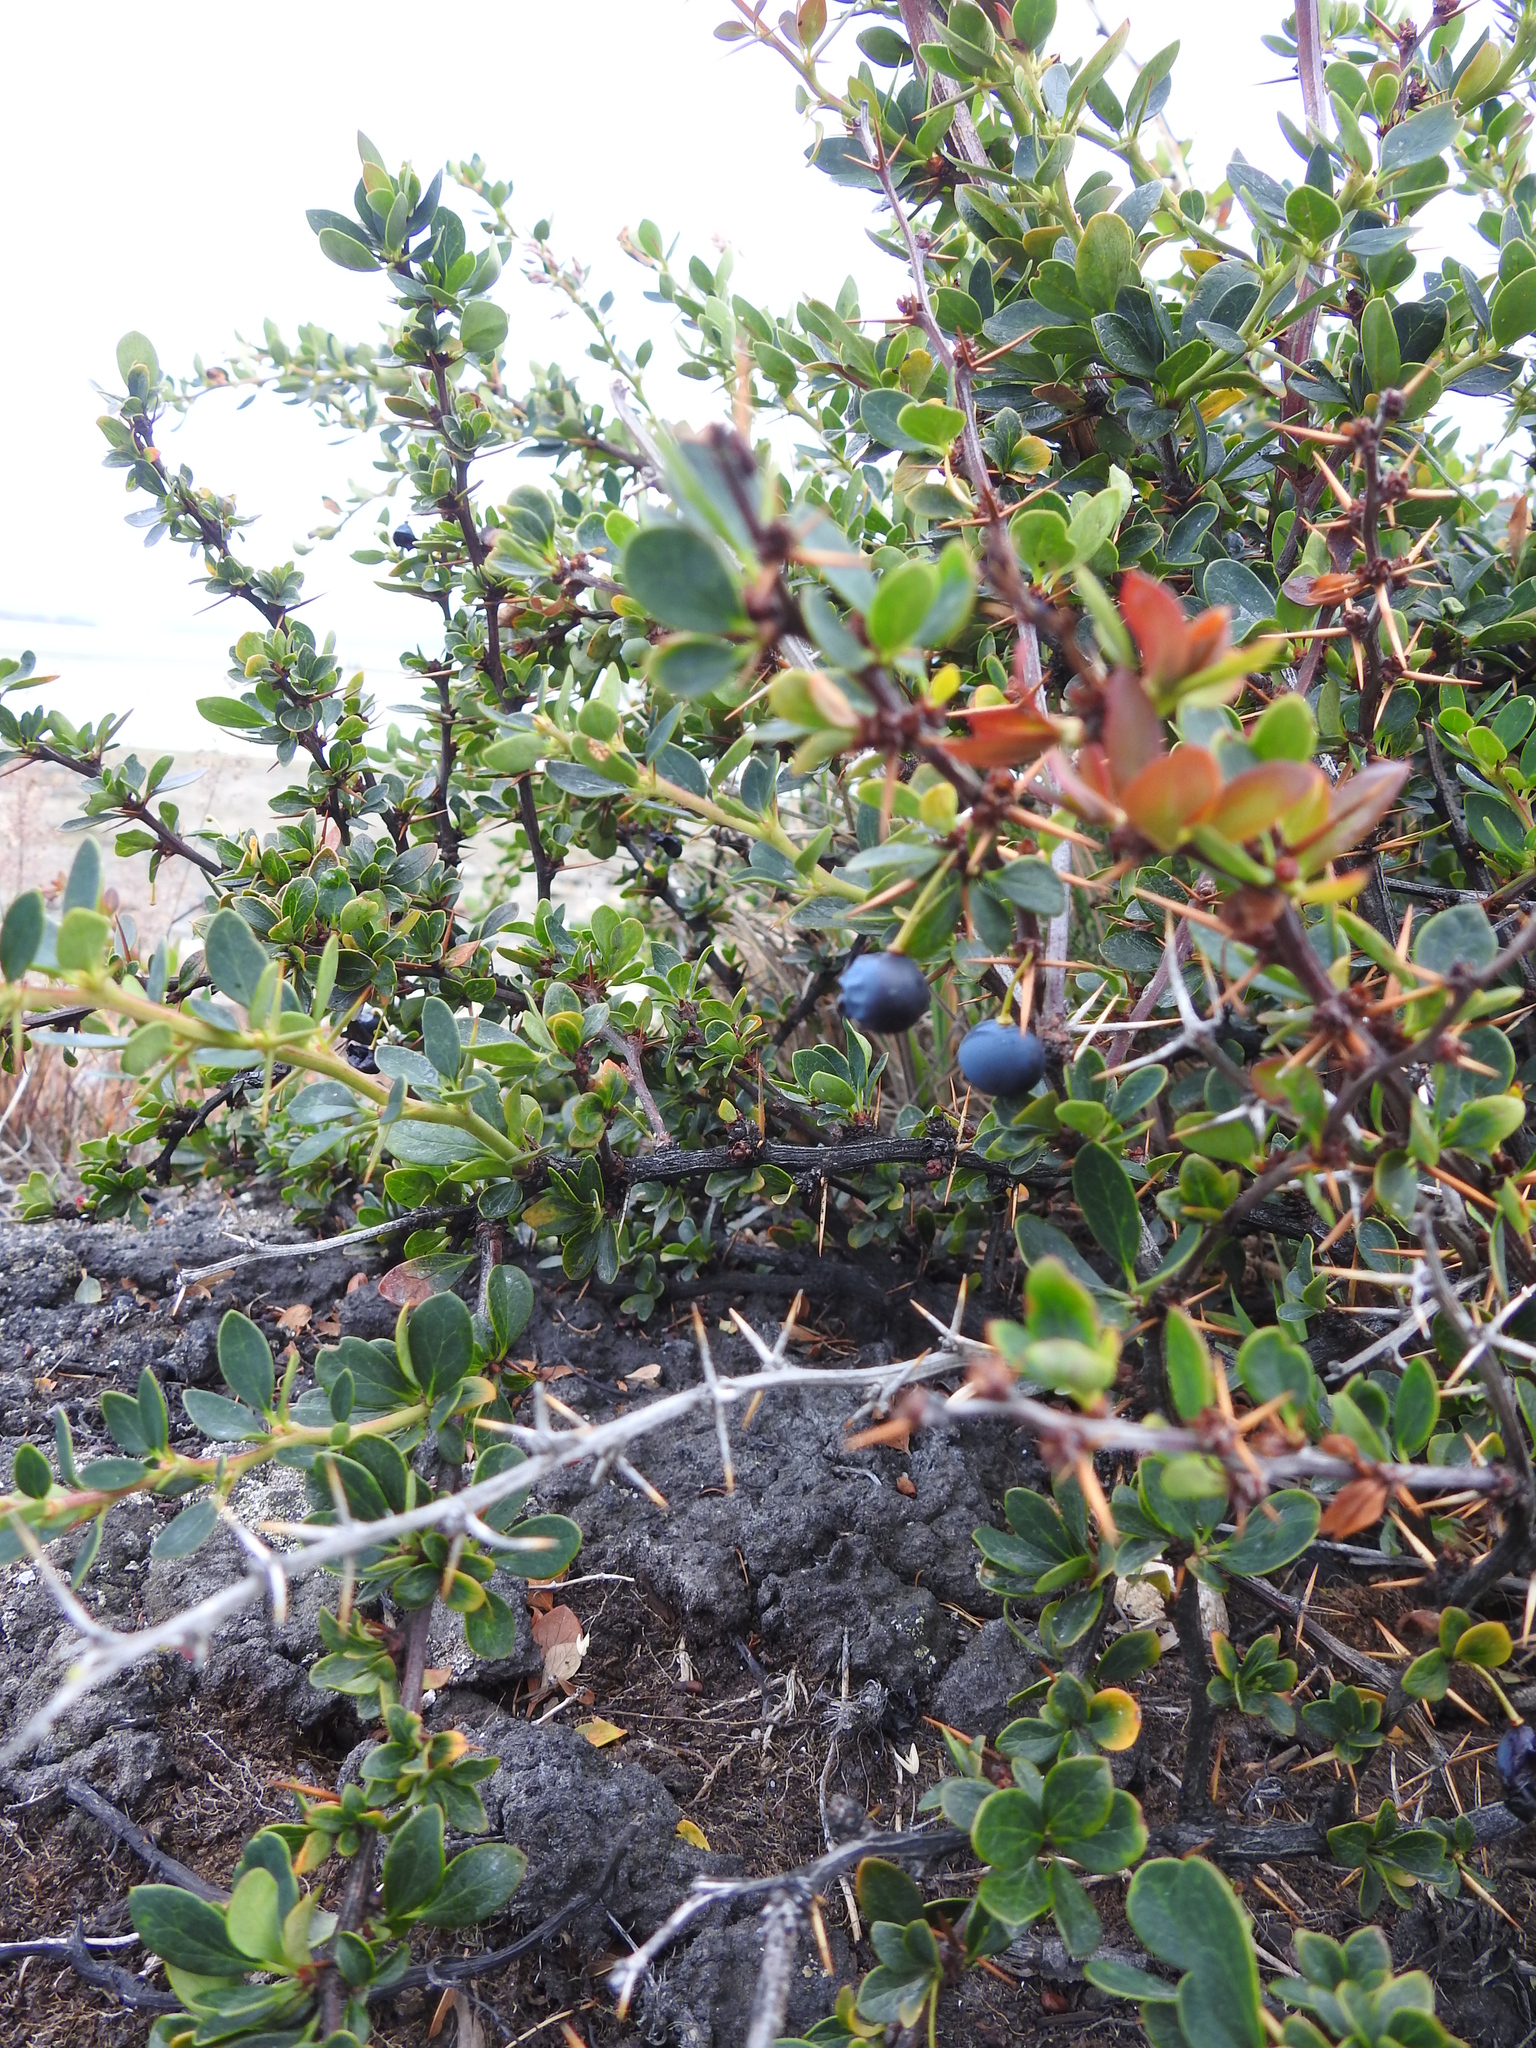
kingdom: Plantae
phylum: Tracheophyta
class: Magnoliopsida
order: Ranunculales
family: Berberidaceae
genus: Berberis
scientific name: Berberis microphylla
